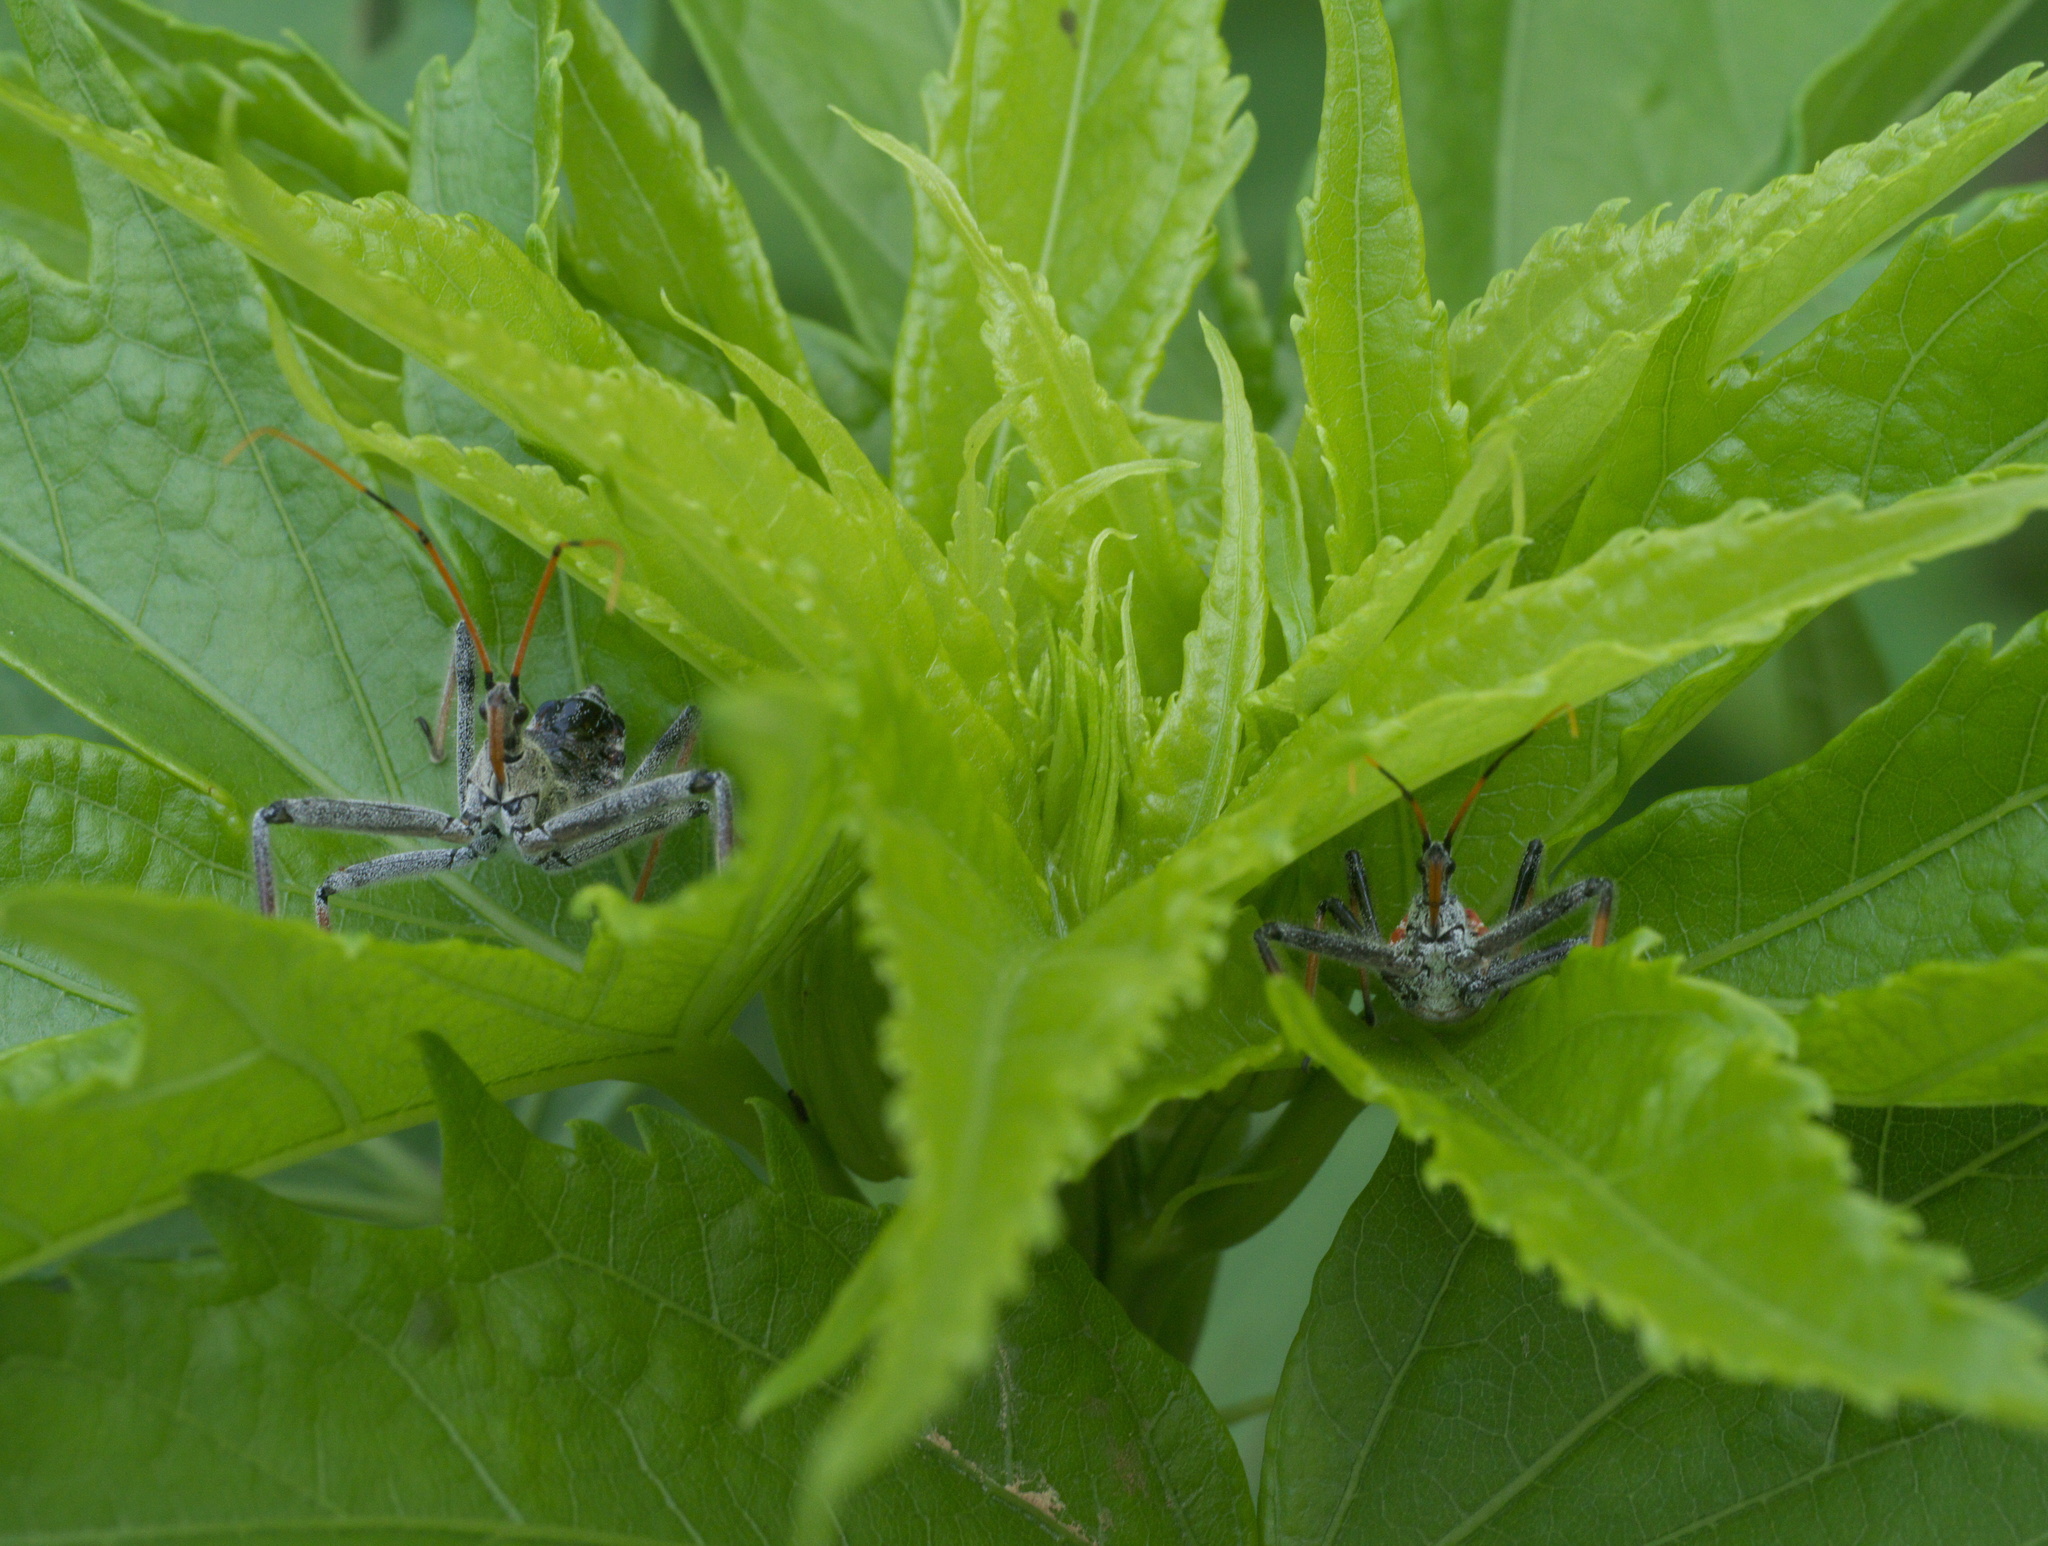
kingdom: Animalia
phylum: Arthropoda
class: Insecta
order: Hemiptera
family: Reduviidae
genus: Arilus
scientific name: Arilus cristatus
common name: North american wheel bug
